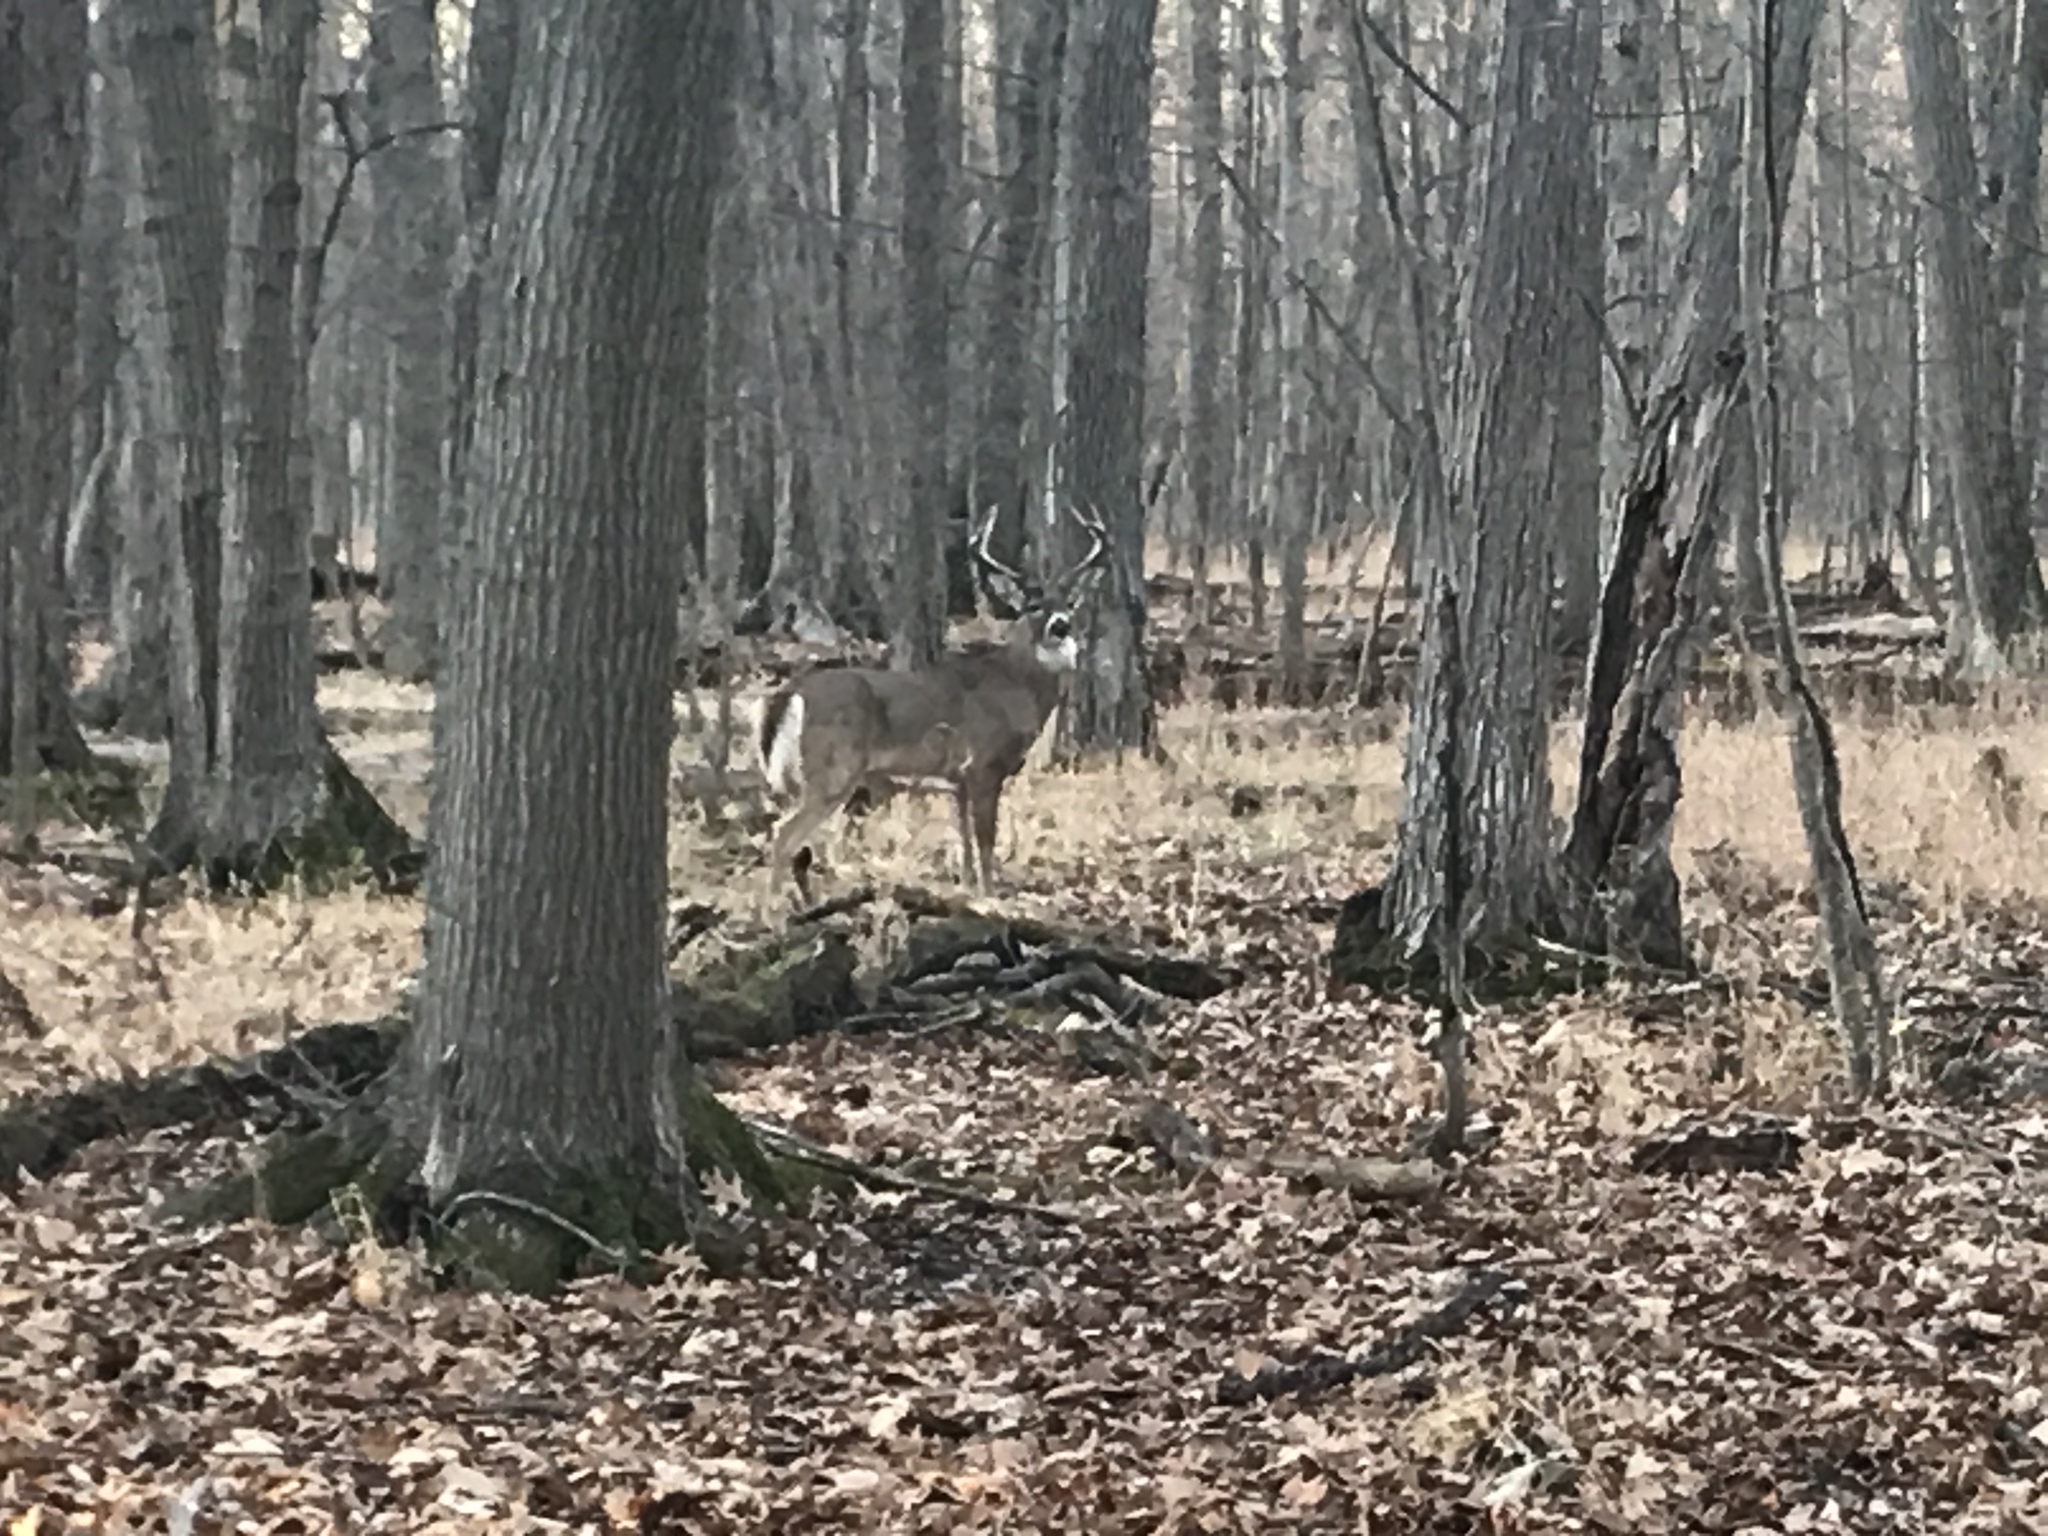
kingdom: Animalia
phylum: Chordata
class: Mammalia
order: Artiodactyla
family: Cervidae
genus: Odocoileus
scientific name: Odocoileus virginianus
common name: White-tailed deer
